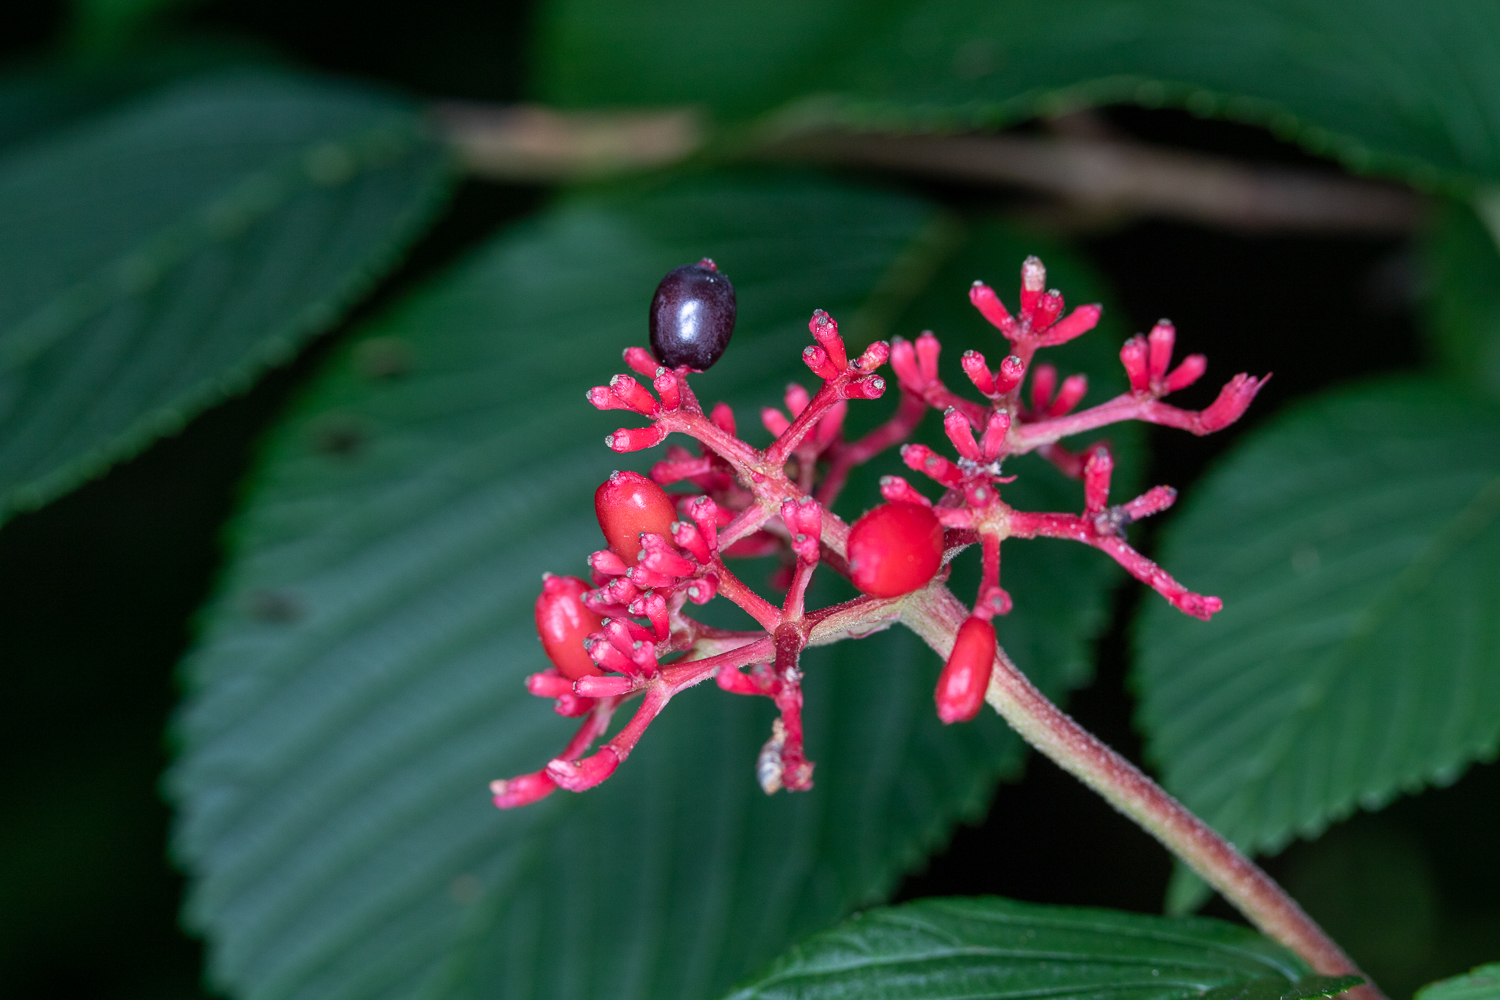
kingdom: Plantae
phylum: Tracheophyta
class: Magnoliopsida
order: Dipsacales
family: Viburnaceae
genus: Viburnum
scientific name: Viburnum plicatum
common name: Japanese snowball
